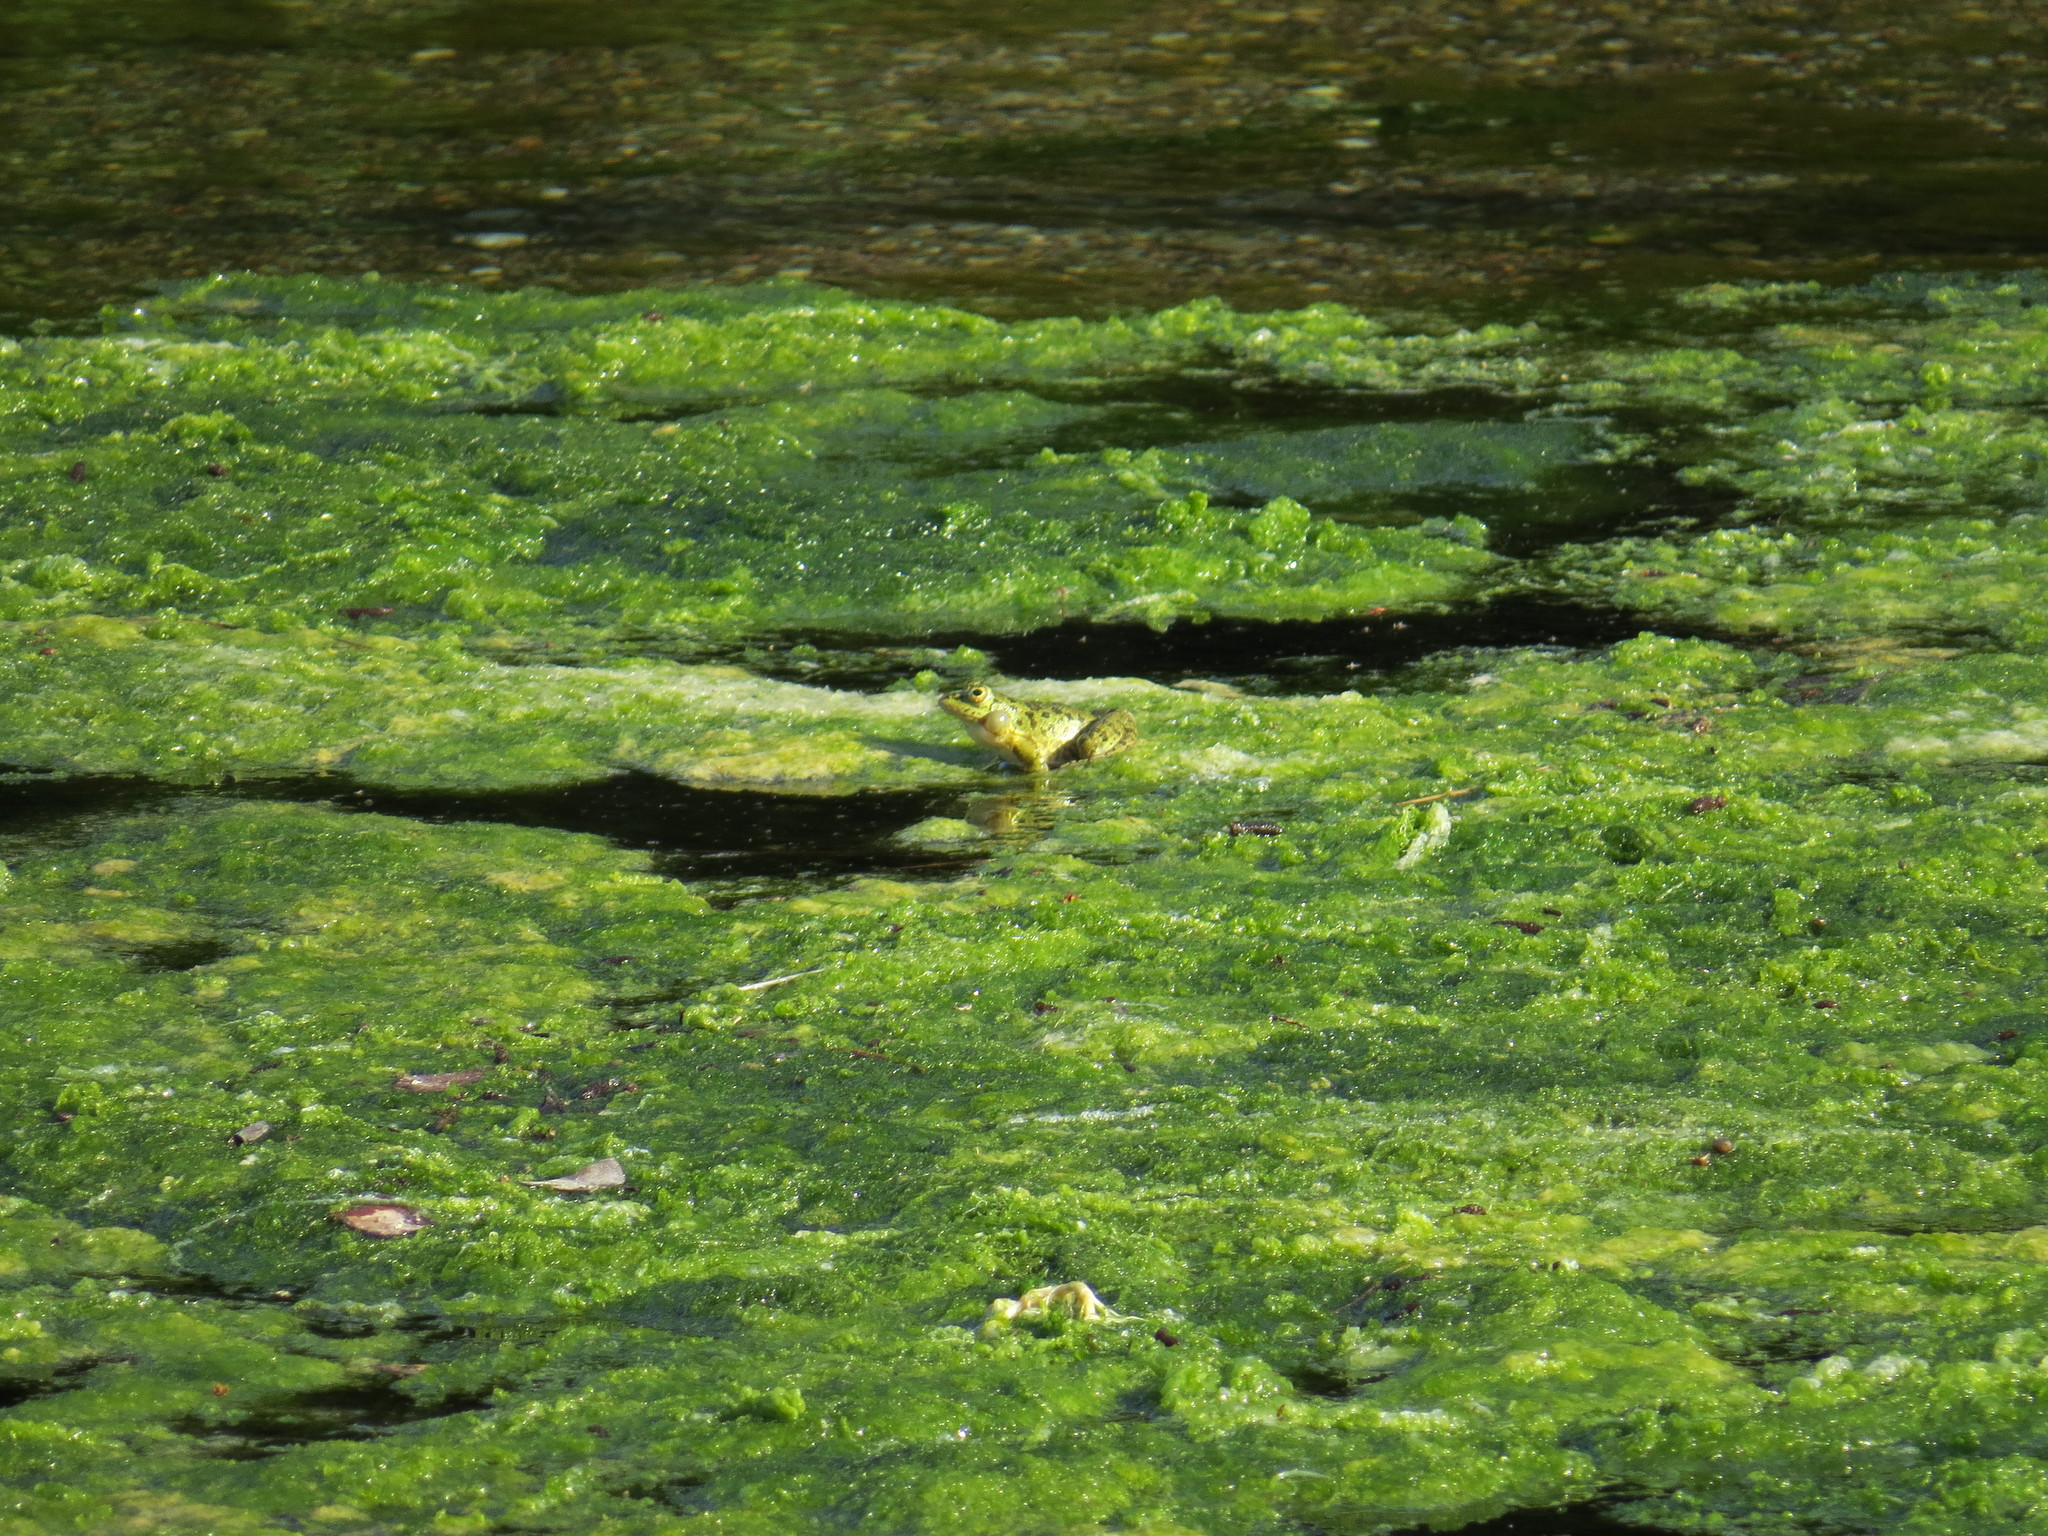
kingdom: Animalia
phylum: Chordata
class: Amphibia
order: Anura
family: Ranidae
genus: Pelophylax
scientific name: Pelophylax ridibundus
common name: Marsh frog
